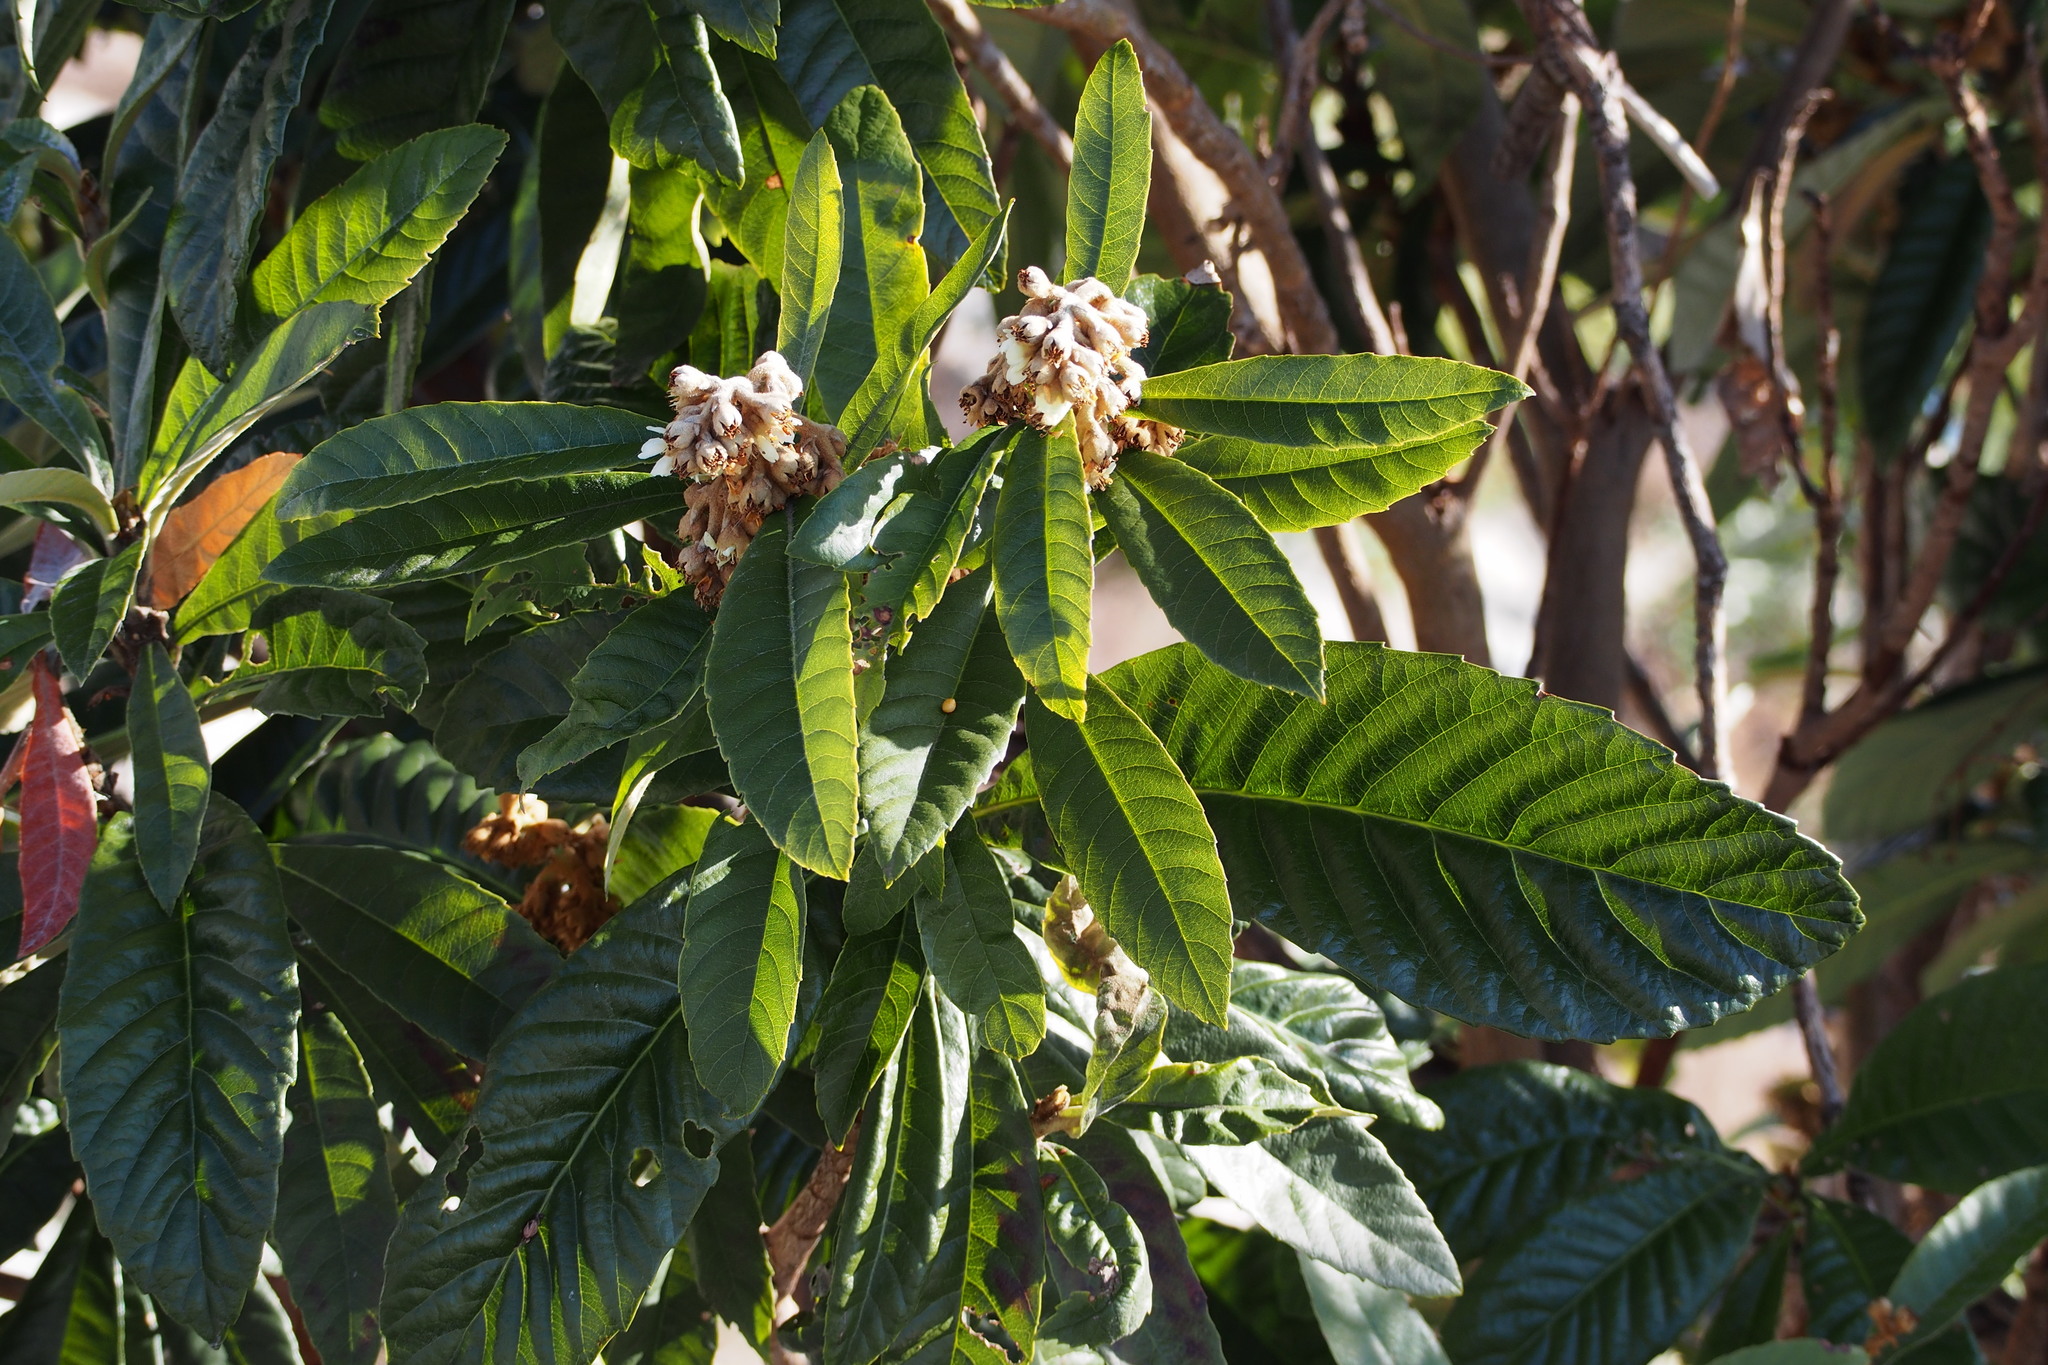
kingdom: Plantae
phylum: Tracheophyta
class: Magnoliopsida
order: Rosales
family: Rosaceae
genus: Rhaphiolepis
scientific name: Rhaphiolepis bibas
